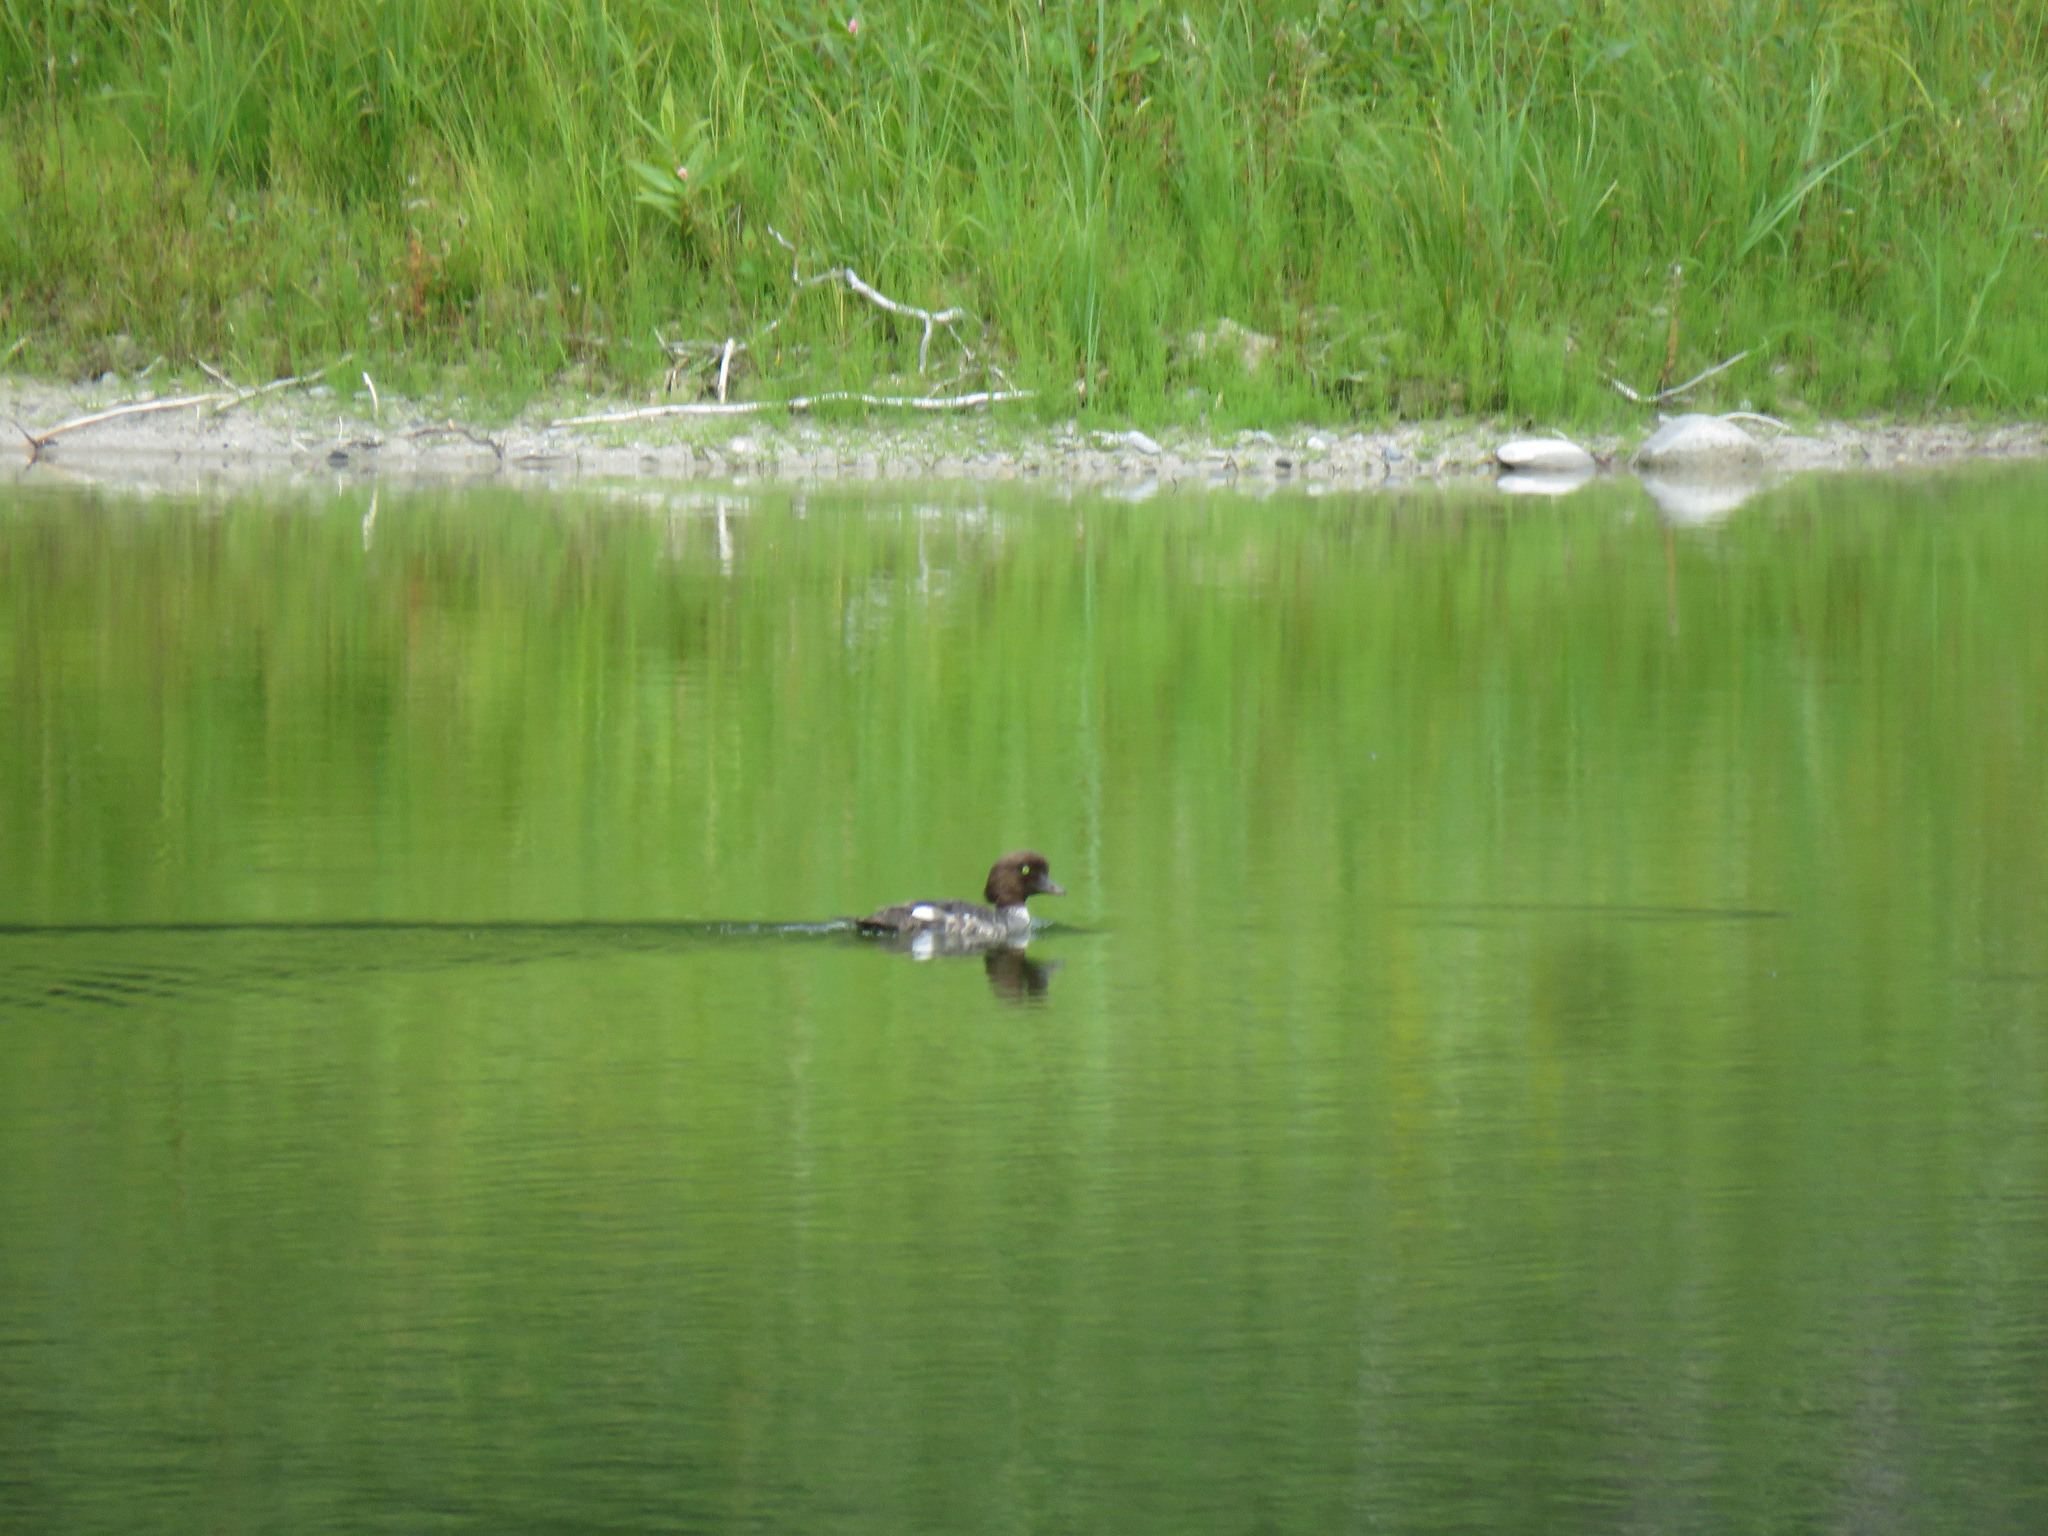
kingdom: Animalia
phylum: Chordata
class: Aves
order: Anseriformes
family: Anatidae
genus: Bucephala
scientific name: Bucephala islandica
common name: Barrow's goldeneye
